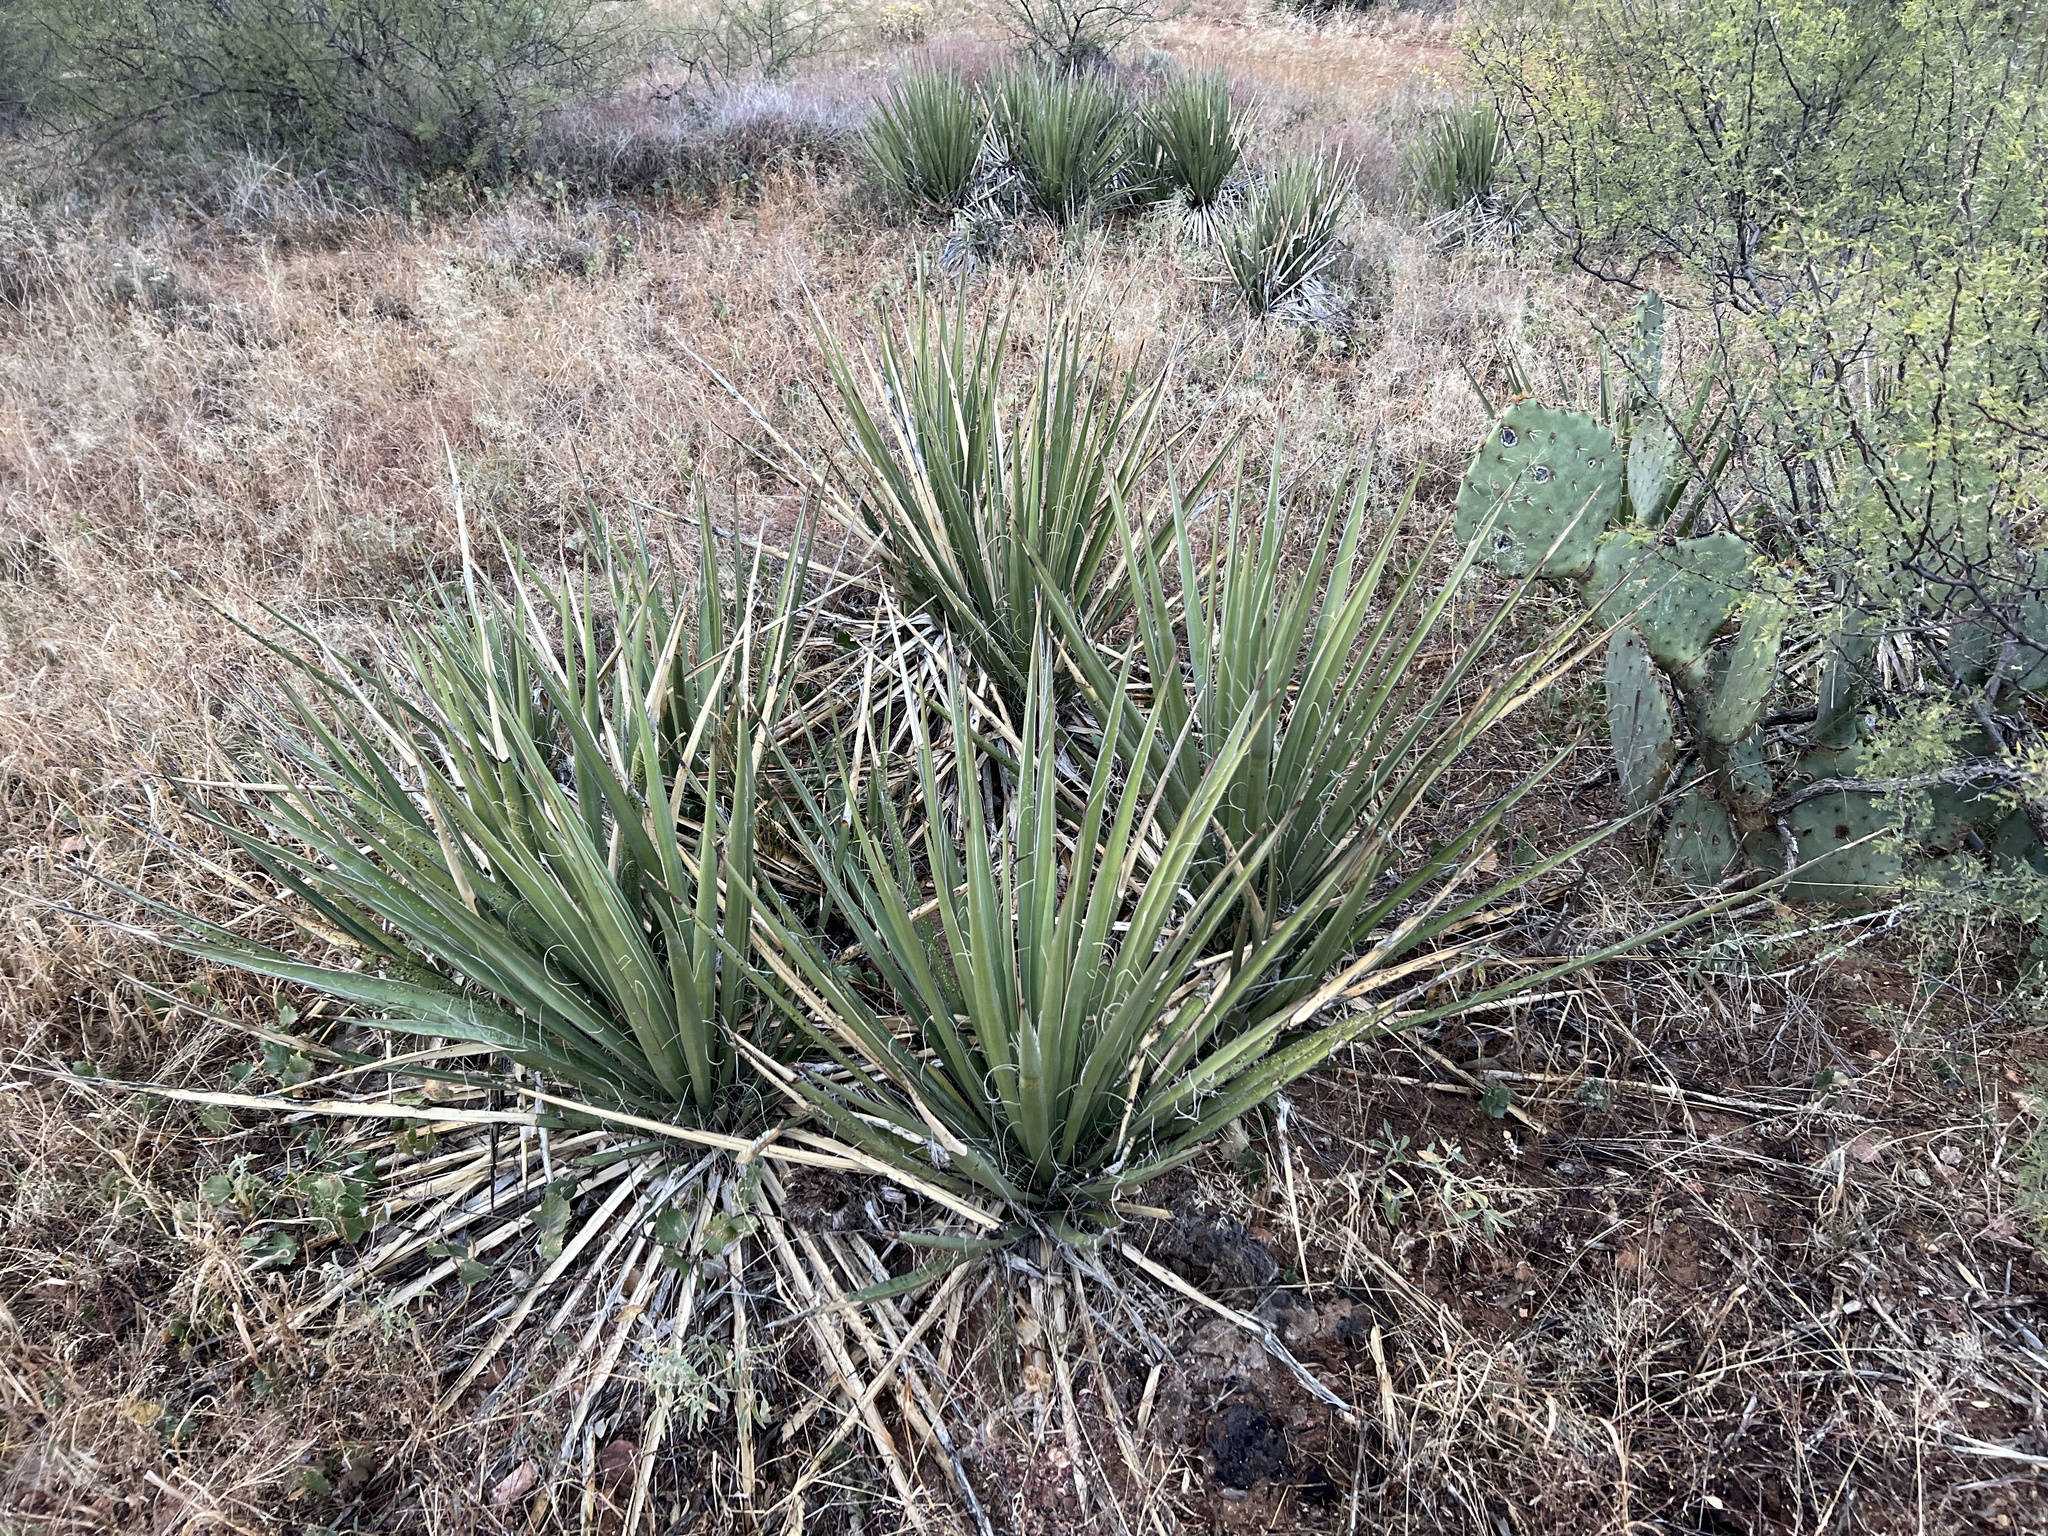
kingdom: Plantae
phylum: Tracheophyta
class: Liliopsida
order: Asparagales
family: Asparagaceae
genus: Yucca
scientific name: Yucca baccata
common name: Banana yucca
